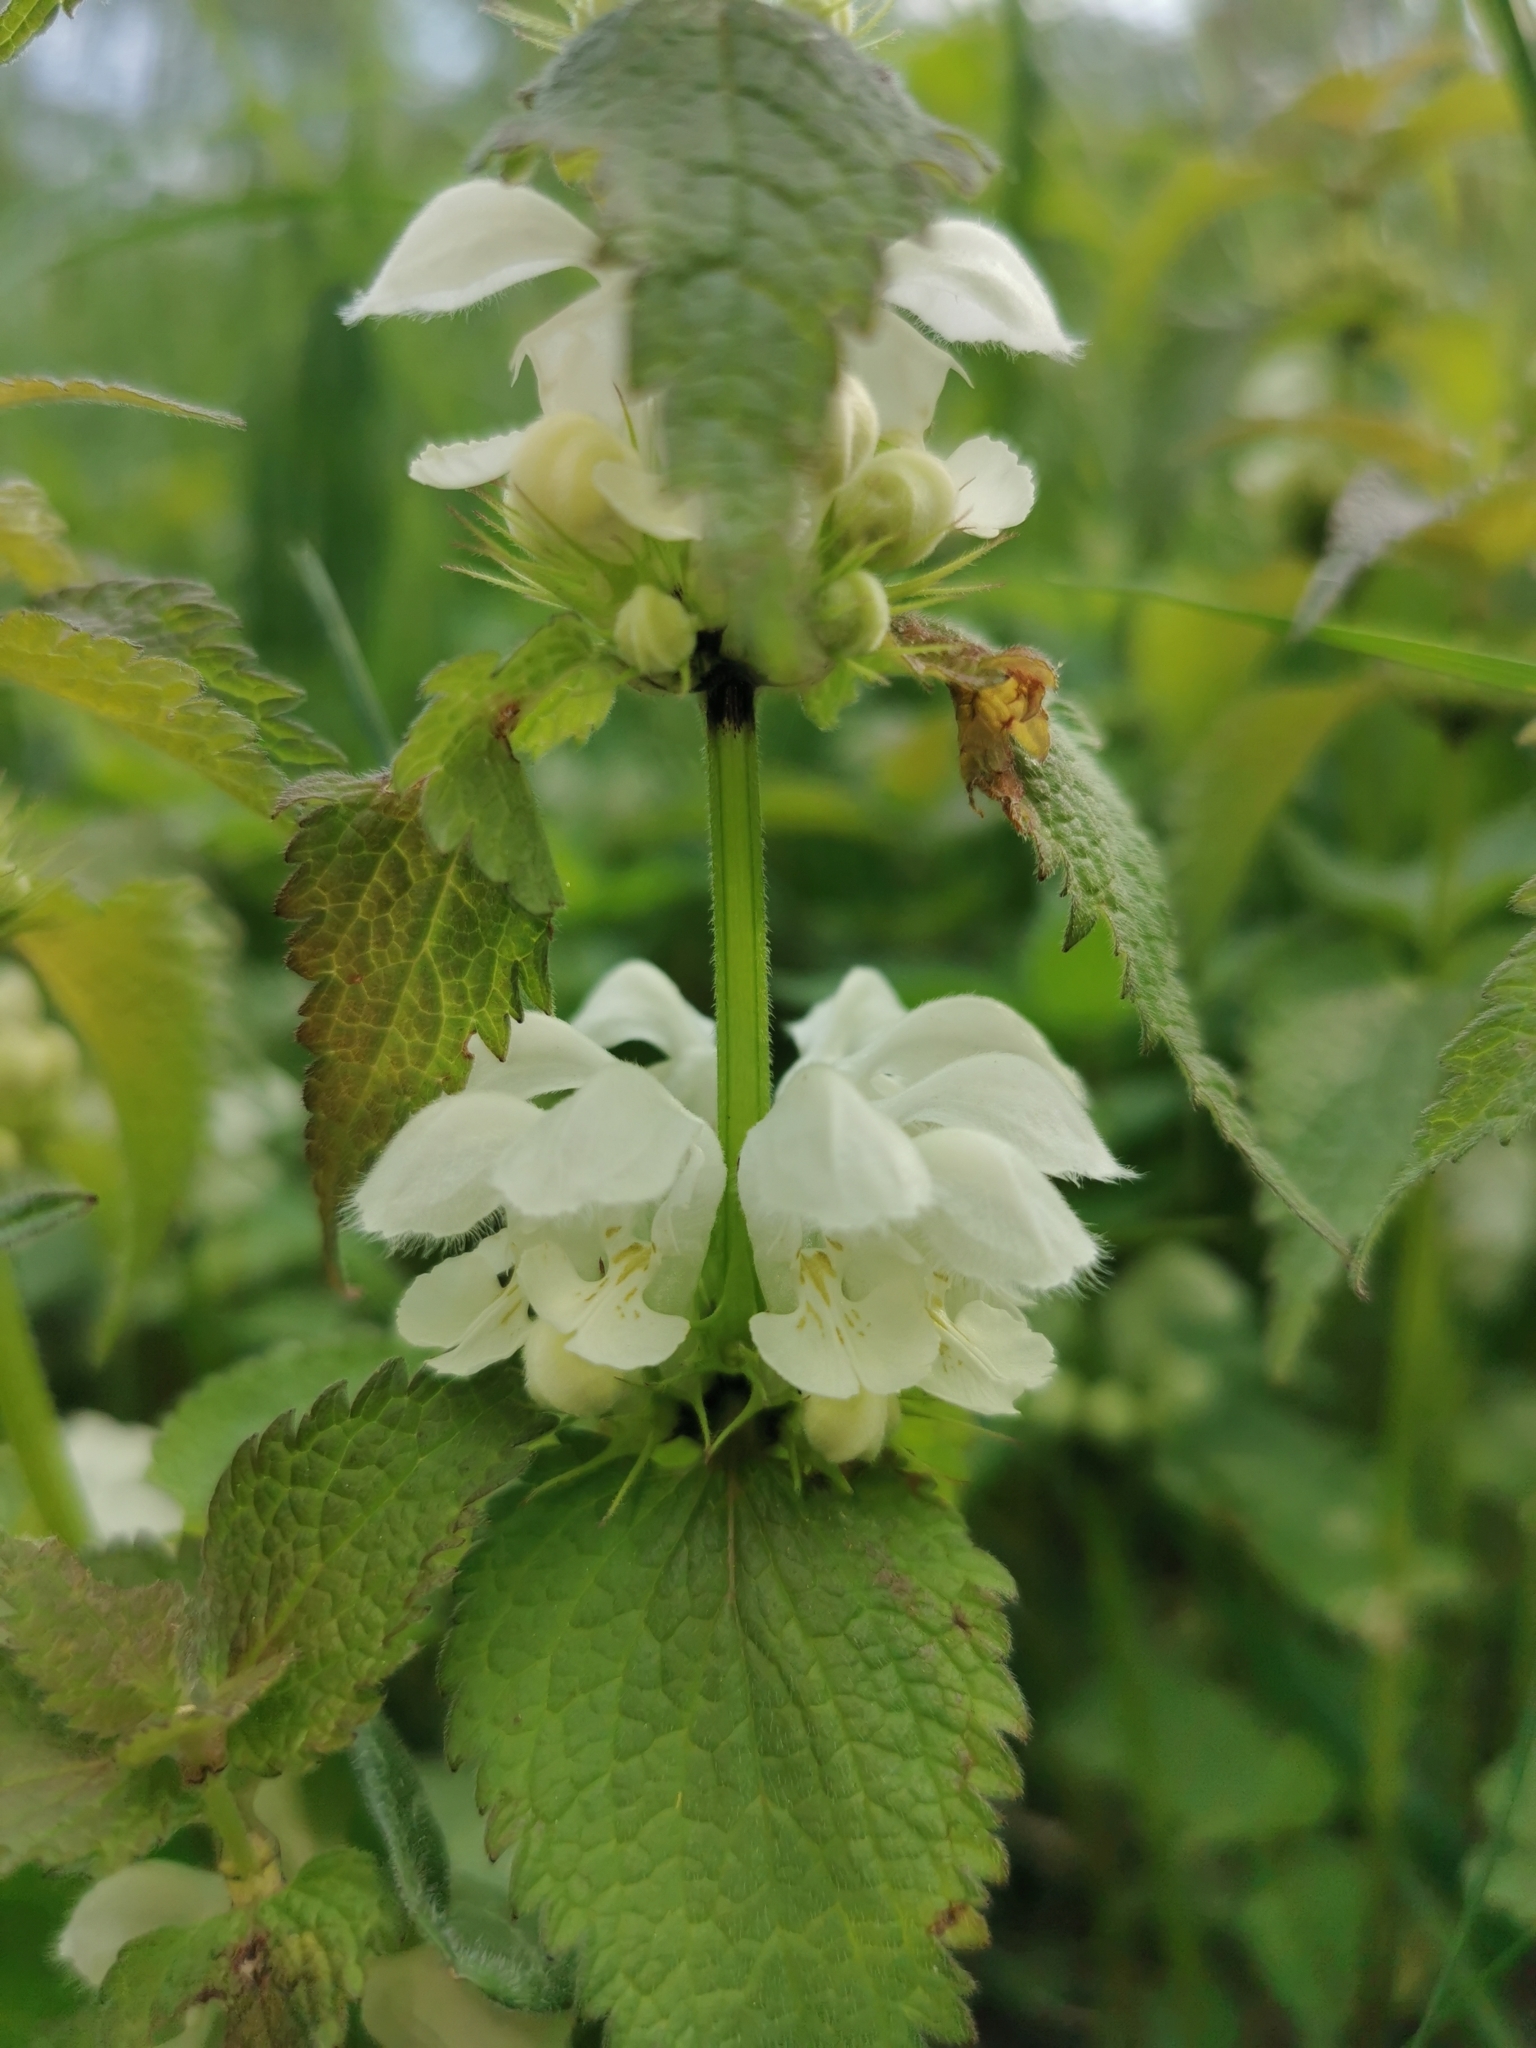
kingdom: Plantae
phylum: Tracheophyta
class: Magnoliopsida
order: Lamiales
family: Lamiaceae
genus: Lamium
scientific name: Lamium album
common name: White dead-nettle
